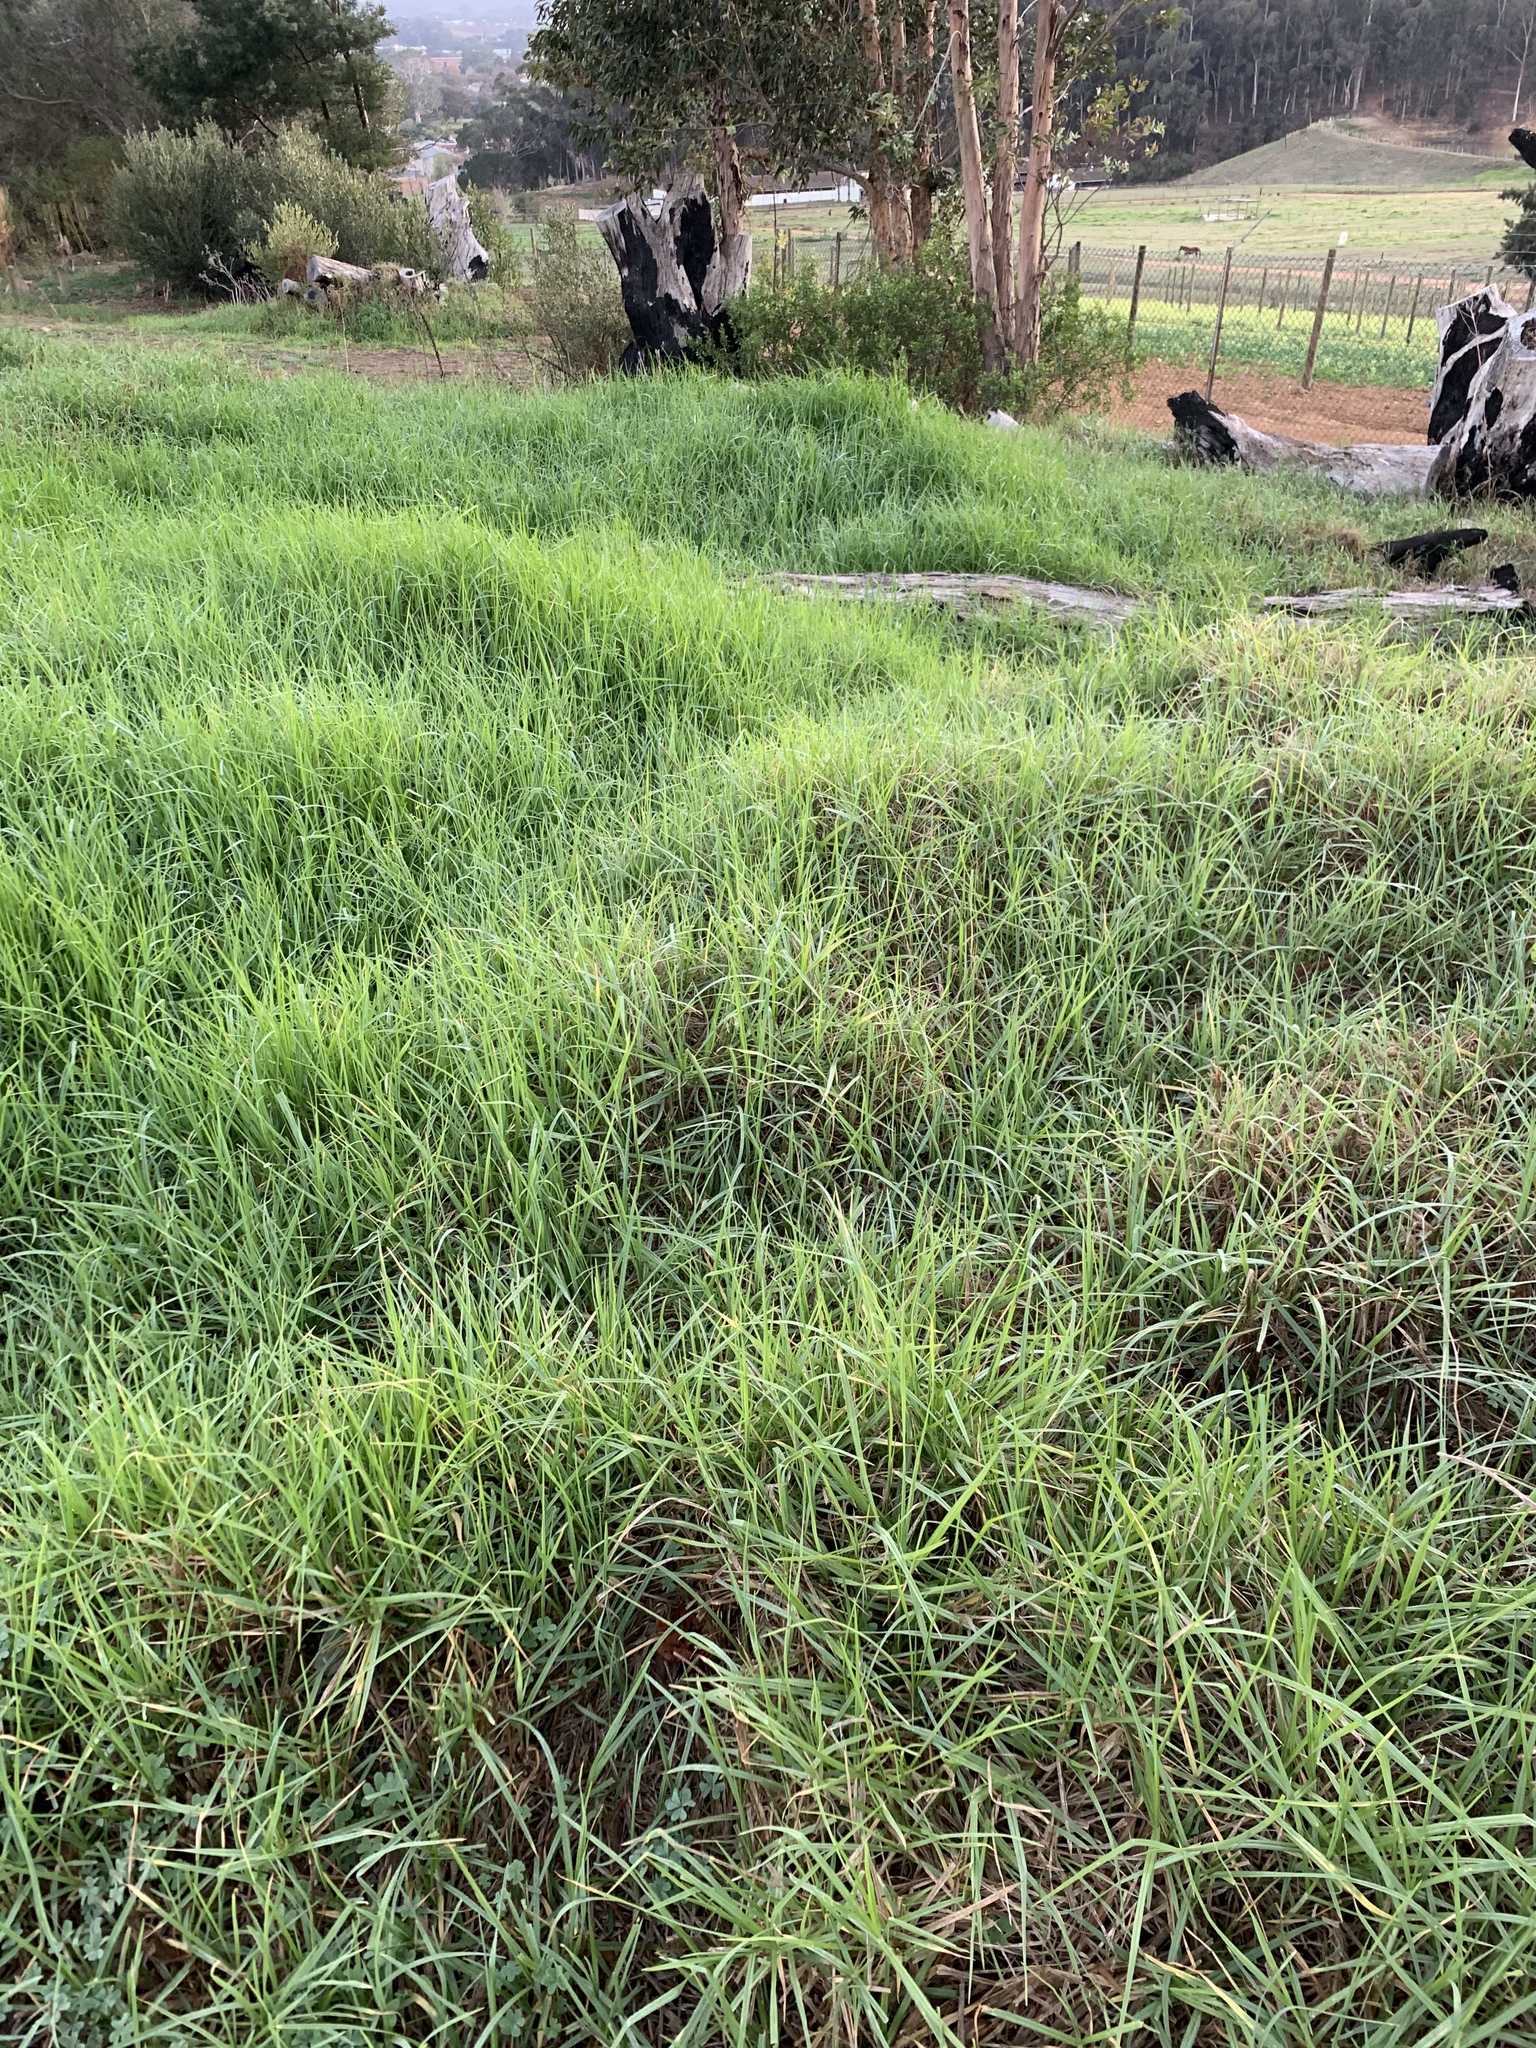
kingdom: Plantae
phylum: Tracheophyta
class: Liliopsida
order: Poales
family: Poaceae
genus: Cenchrus
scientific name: Cenchrus clandestinus
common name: Kikuyugrass
